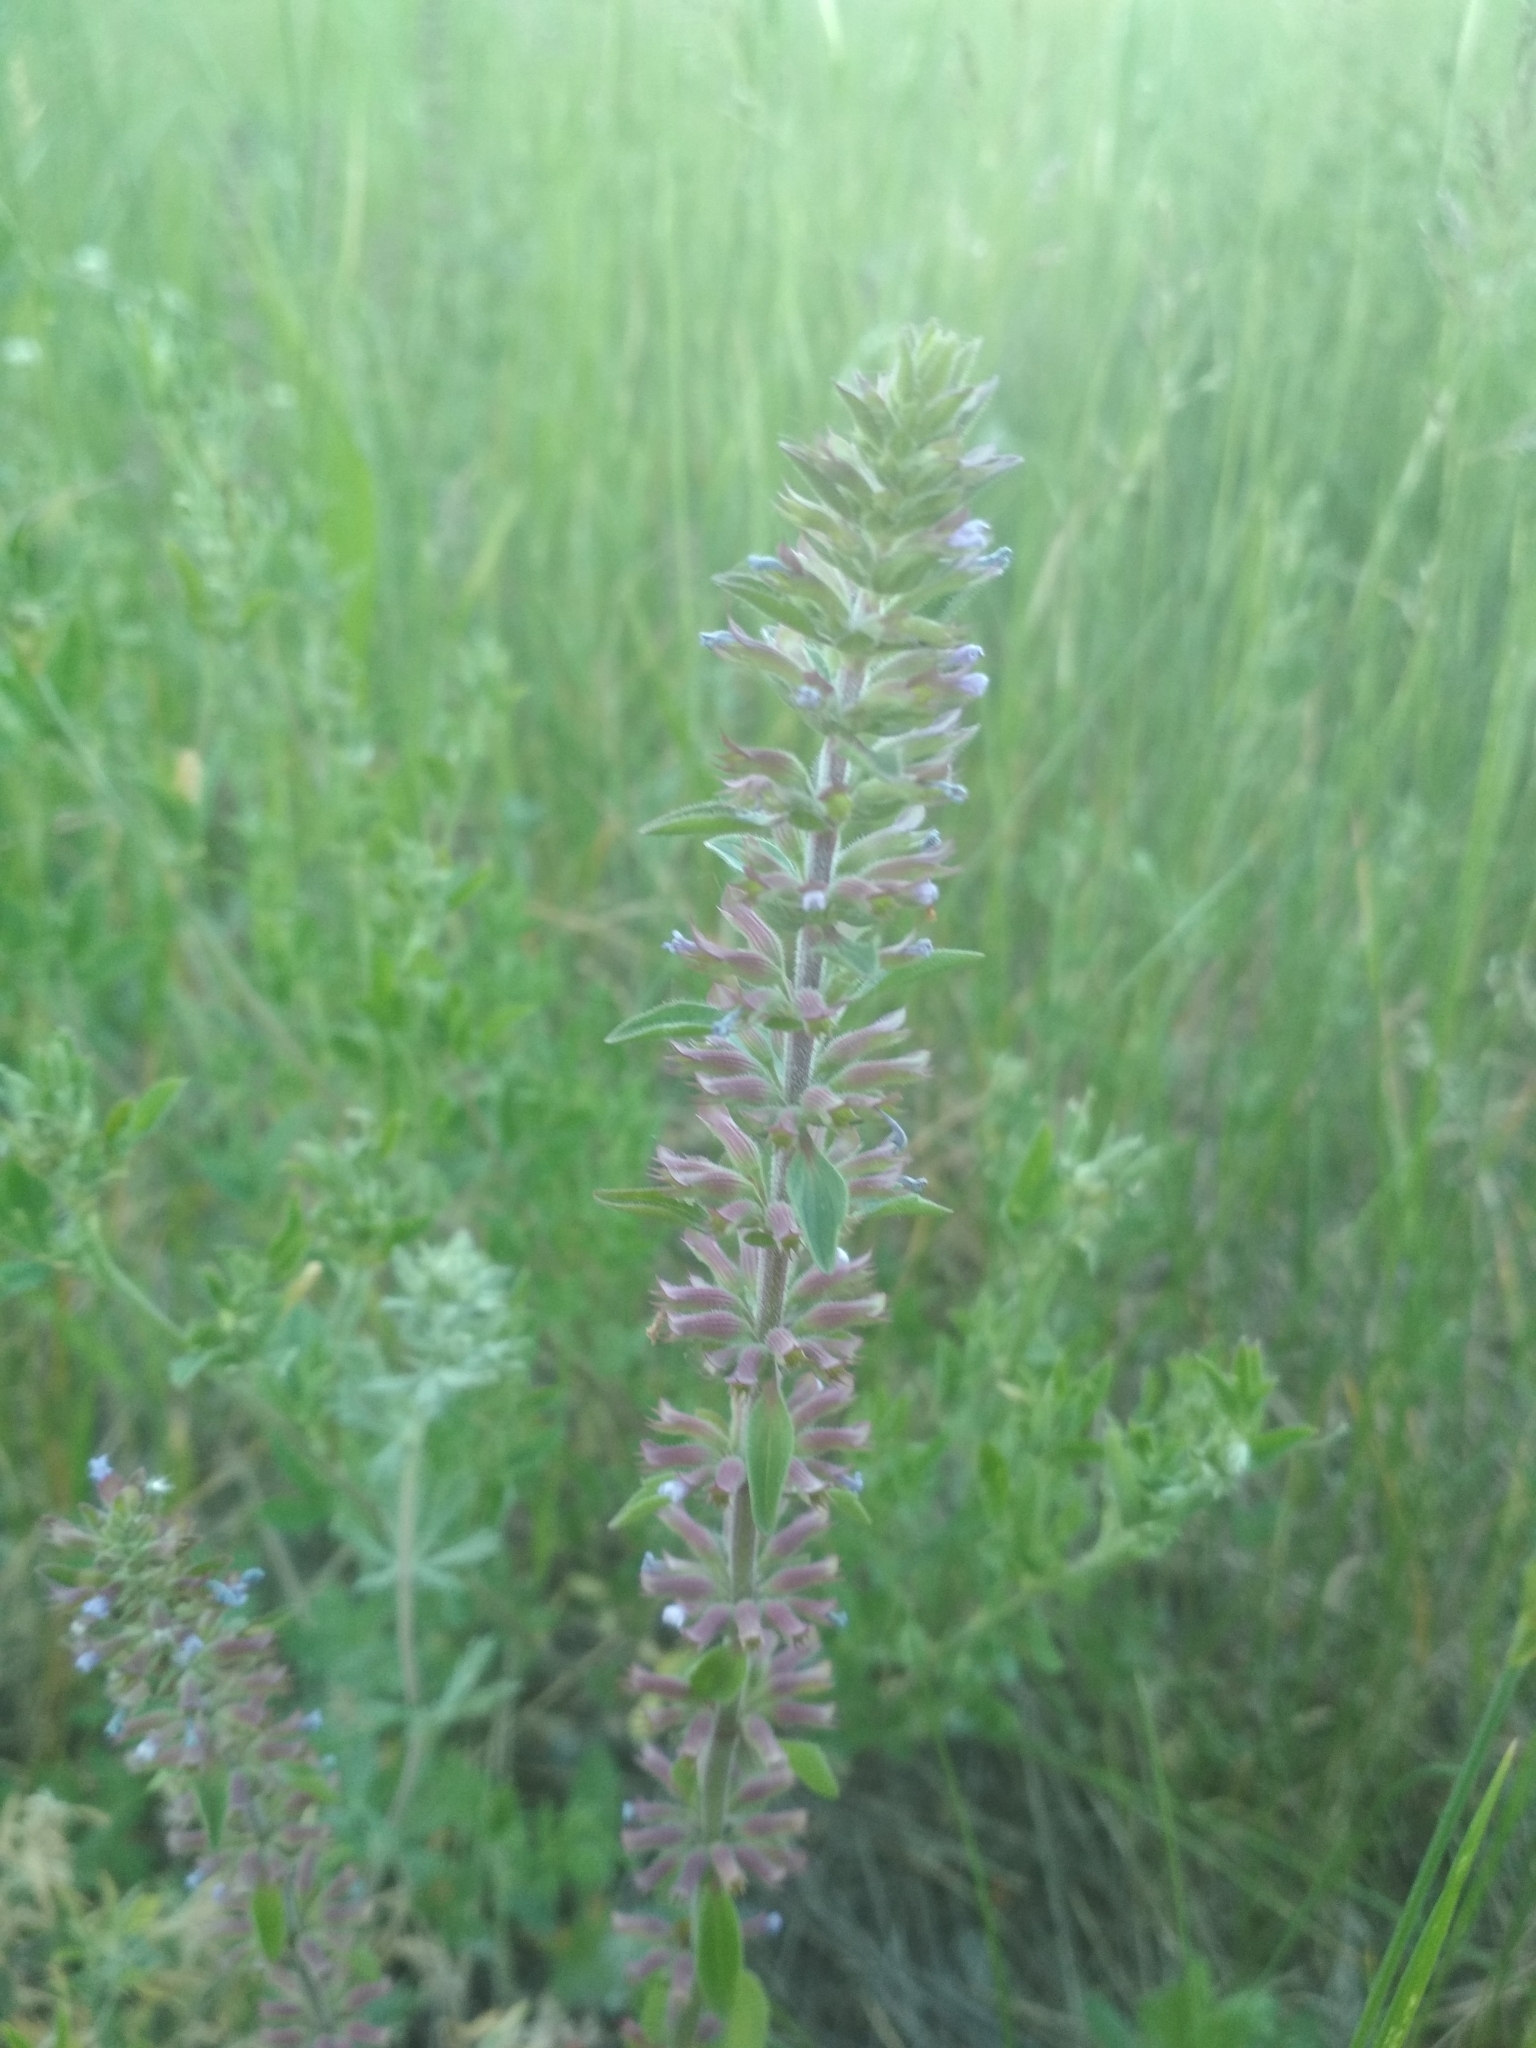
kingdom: Plantae
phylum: Tracheophyta
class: Magnoliopsida
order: Lamiales
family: Lamiaceae
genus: Dracocephalum
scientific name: Dracocephalum thymiflorum
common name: Thymeleaf dragonhead
